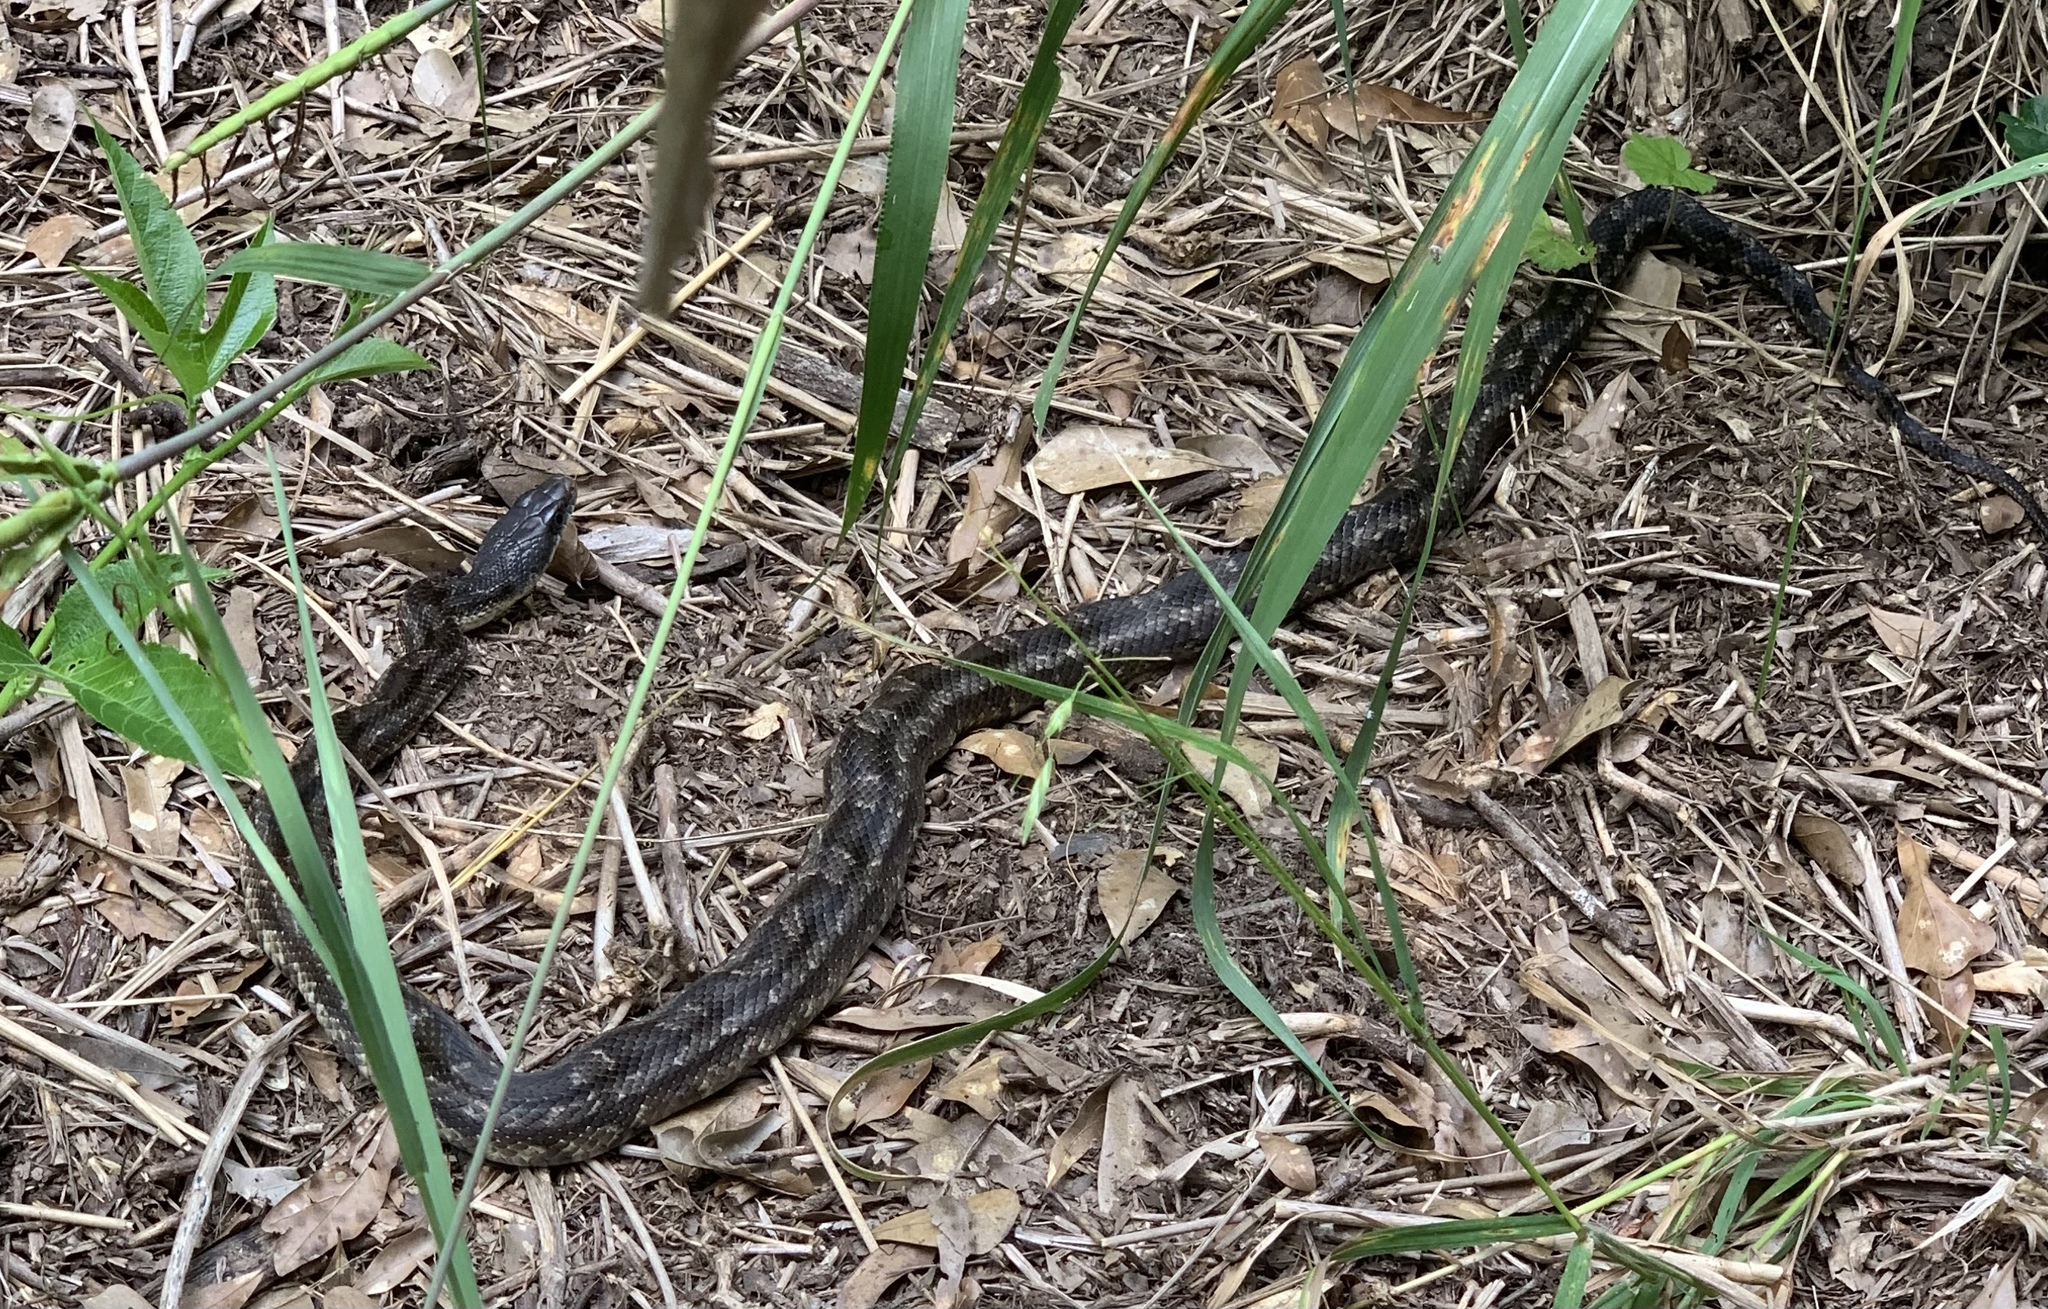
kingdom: Animalia
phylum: Chordata
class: Squamata
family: Colubridae
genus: Pantherophis
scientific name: Pantherophis obsoletus
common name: Black rat snake
